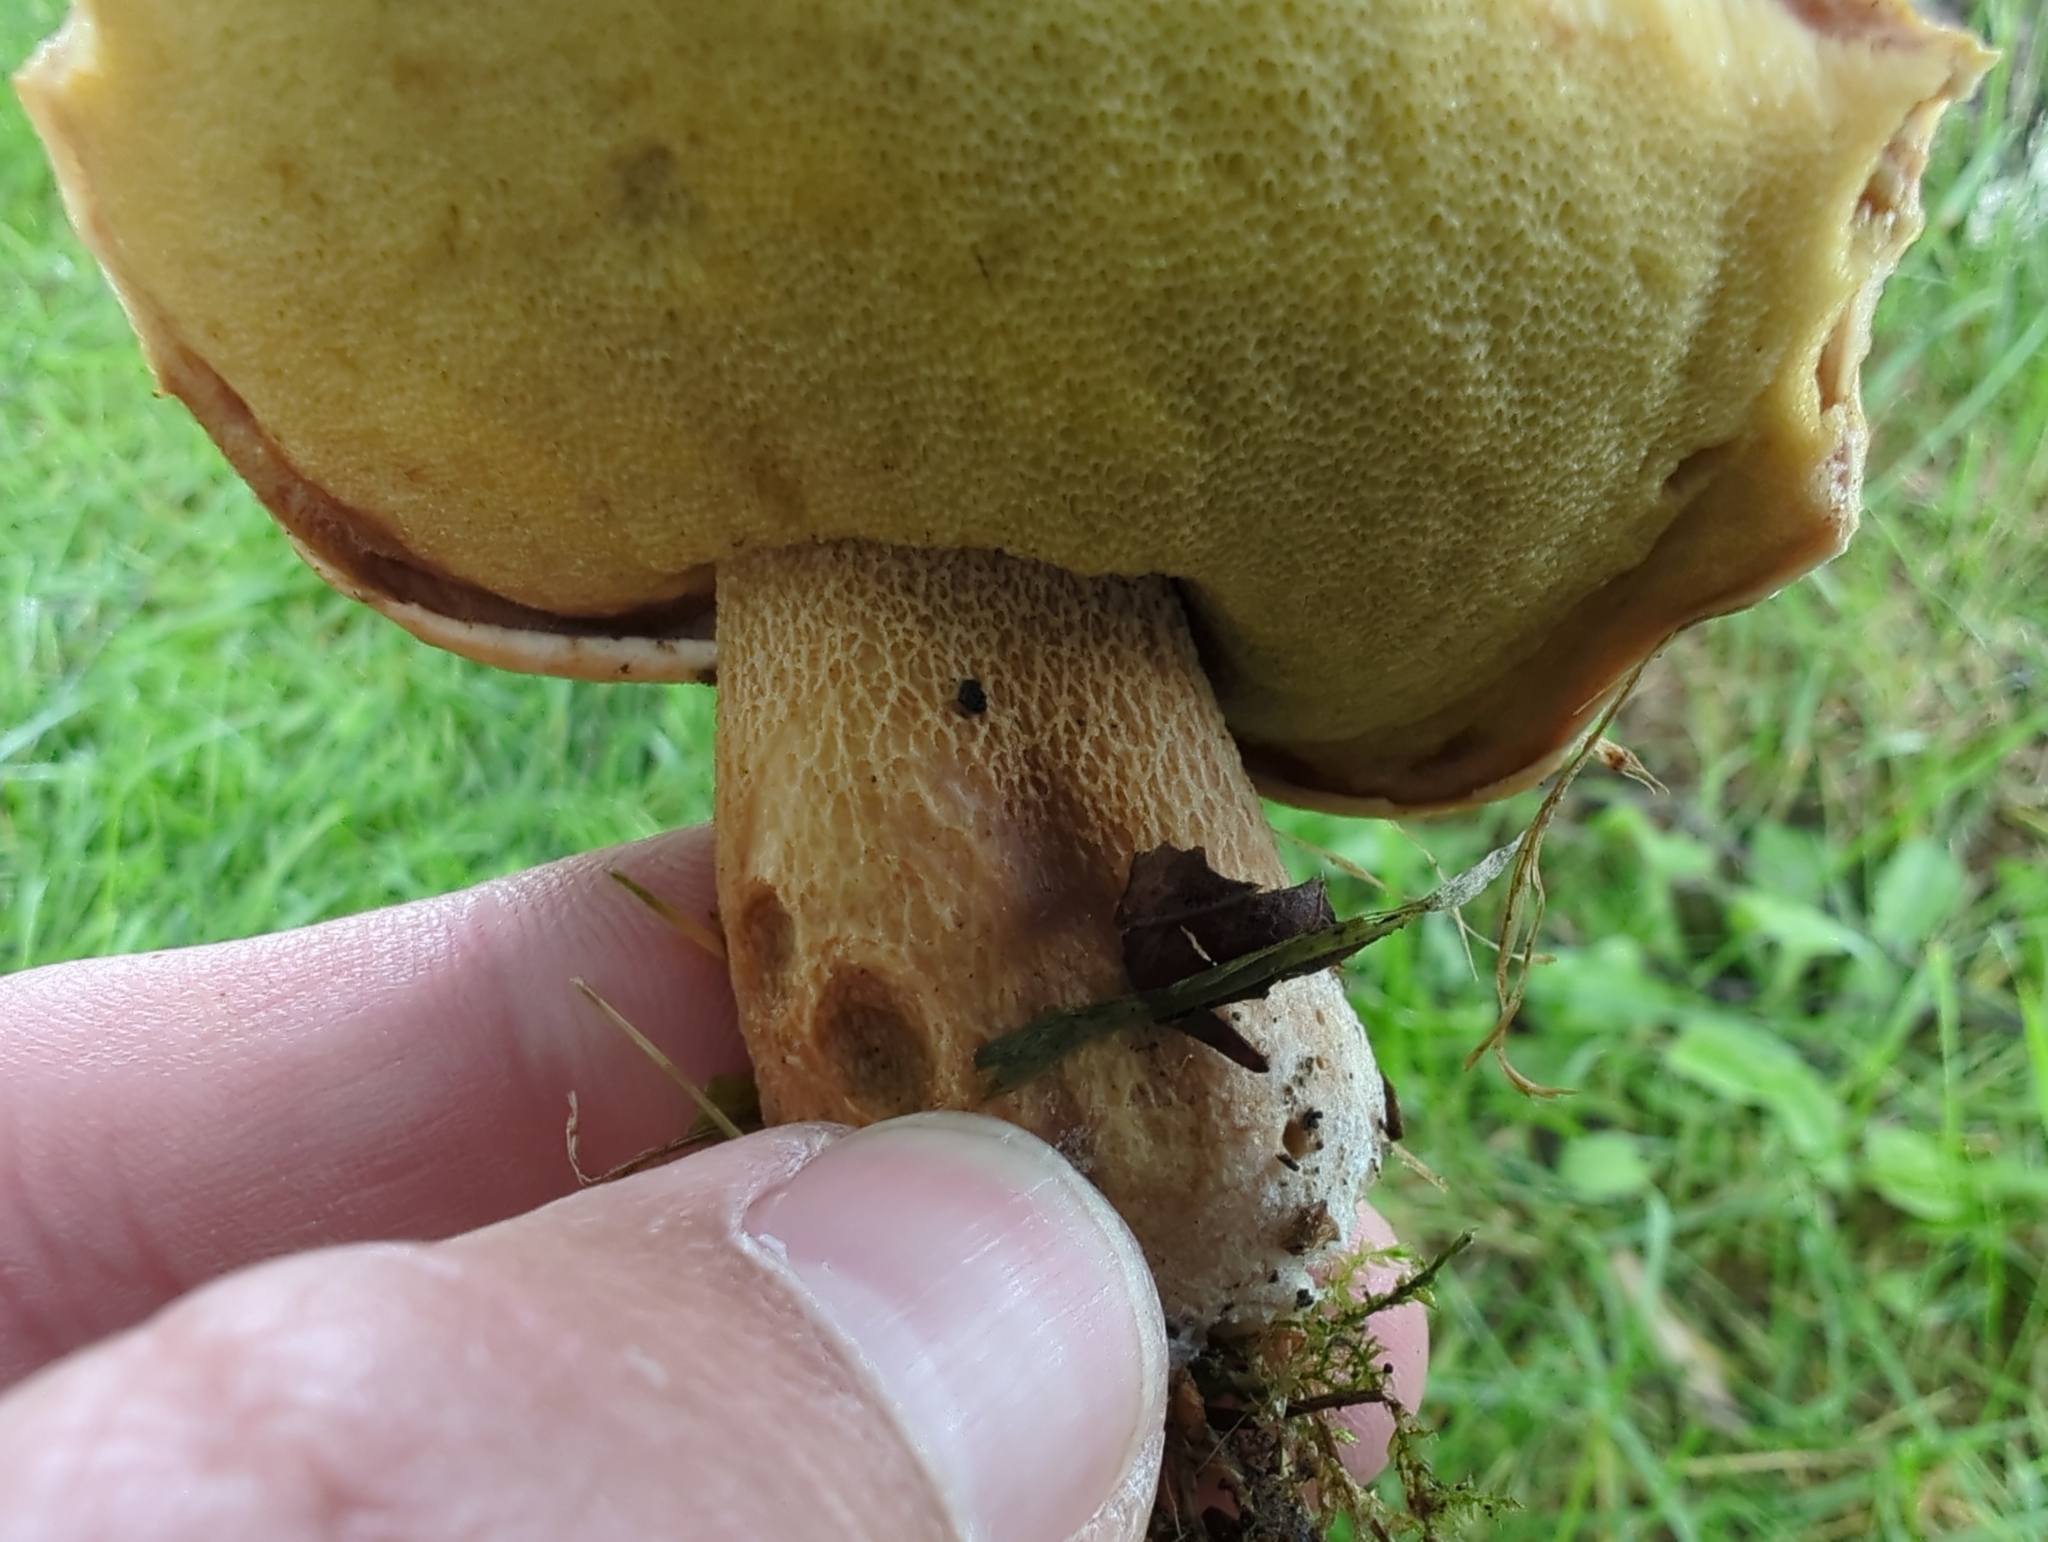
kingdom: Fungi
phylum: Basidiomycota
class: Agaricomycetes
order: Boletales
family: Boletaceae
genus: Boletus
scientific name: Boletus edulis
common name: Cep
